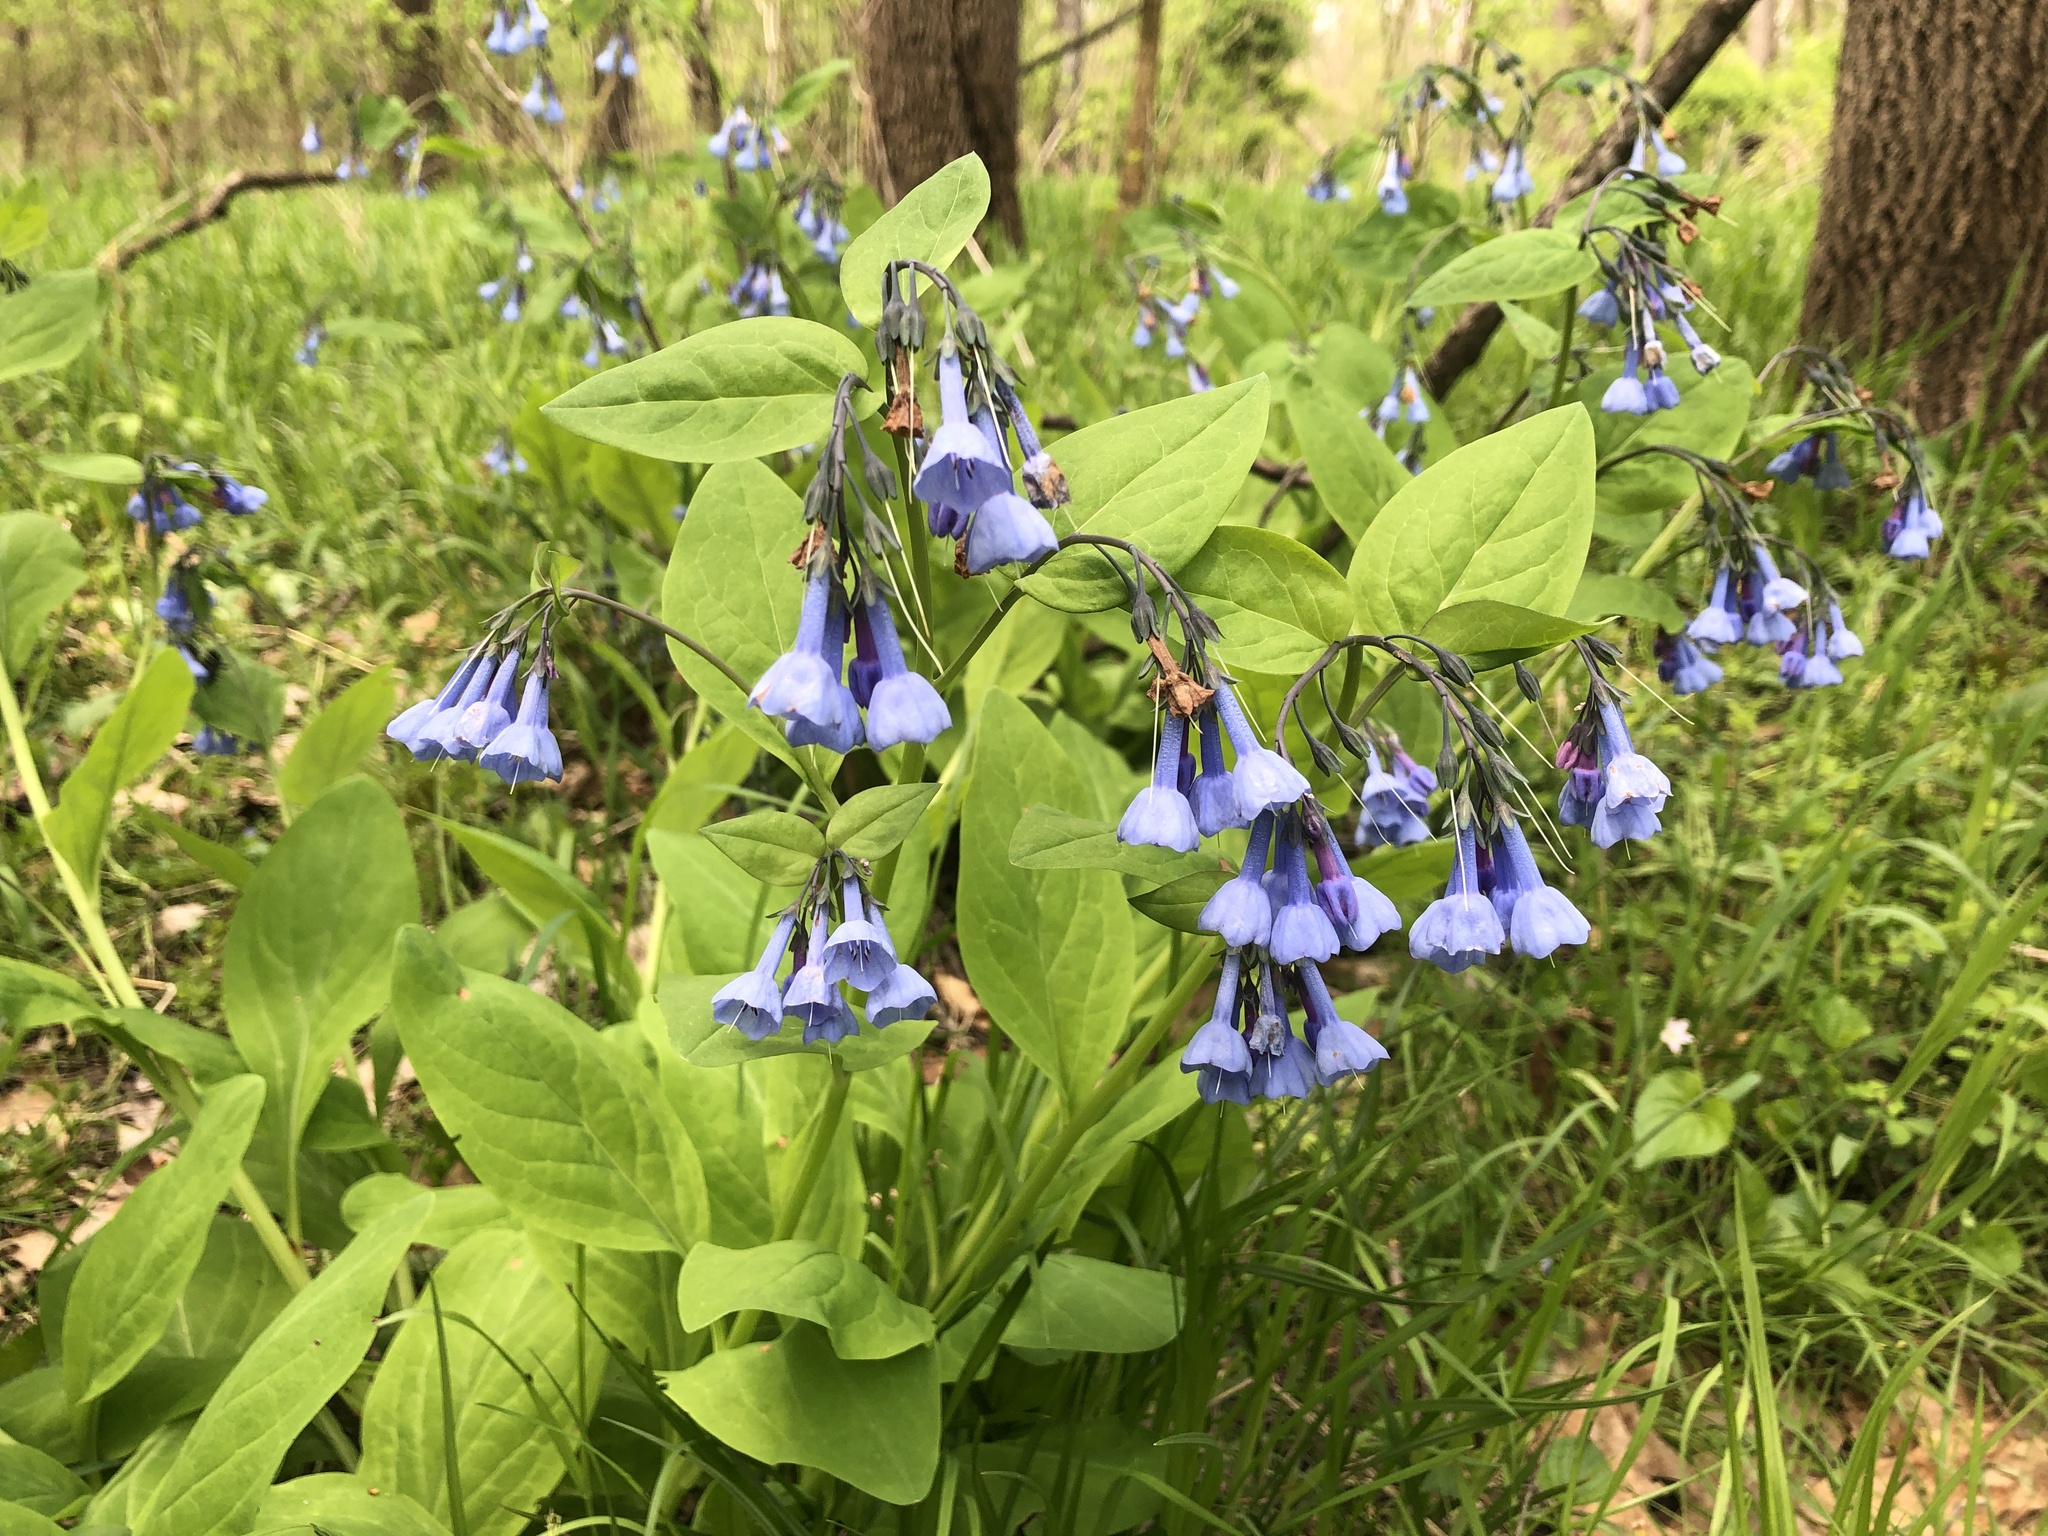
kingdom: Plantae
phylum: Tracheophyta
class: Magnoliopsida
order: Boraginales
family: Boraginaceae
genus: Mertensia
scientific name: Mertensia virginica
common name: Virginia bluebells
